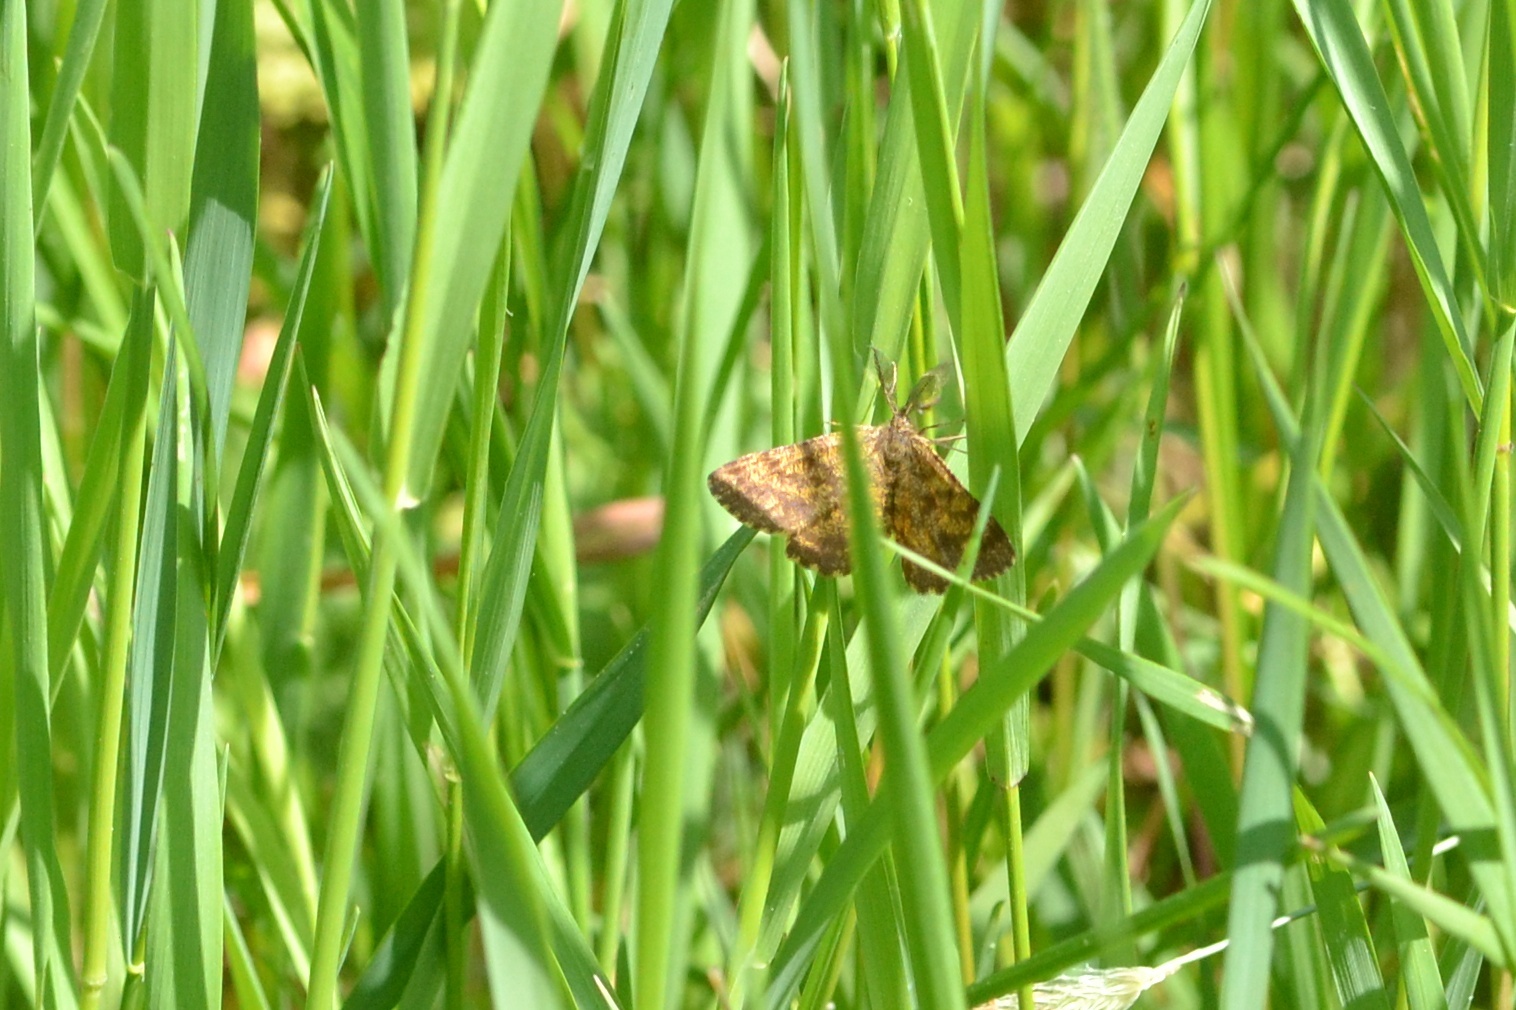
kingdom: Animalia
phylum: Arthropoda
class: Insecta
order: Lepidoptera
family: Geometridae
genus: Ematurga
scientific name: Ematurga atomaria
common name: Common heath
